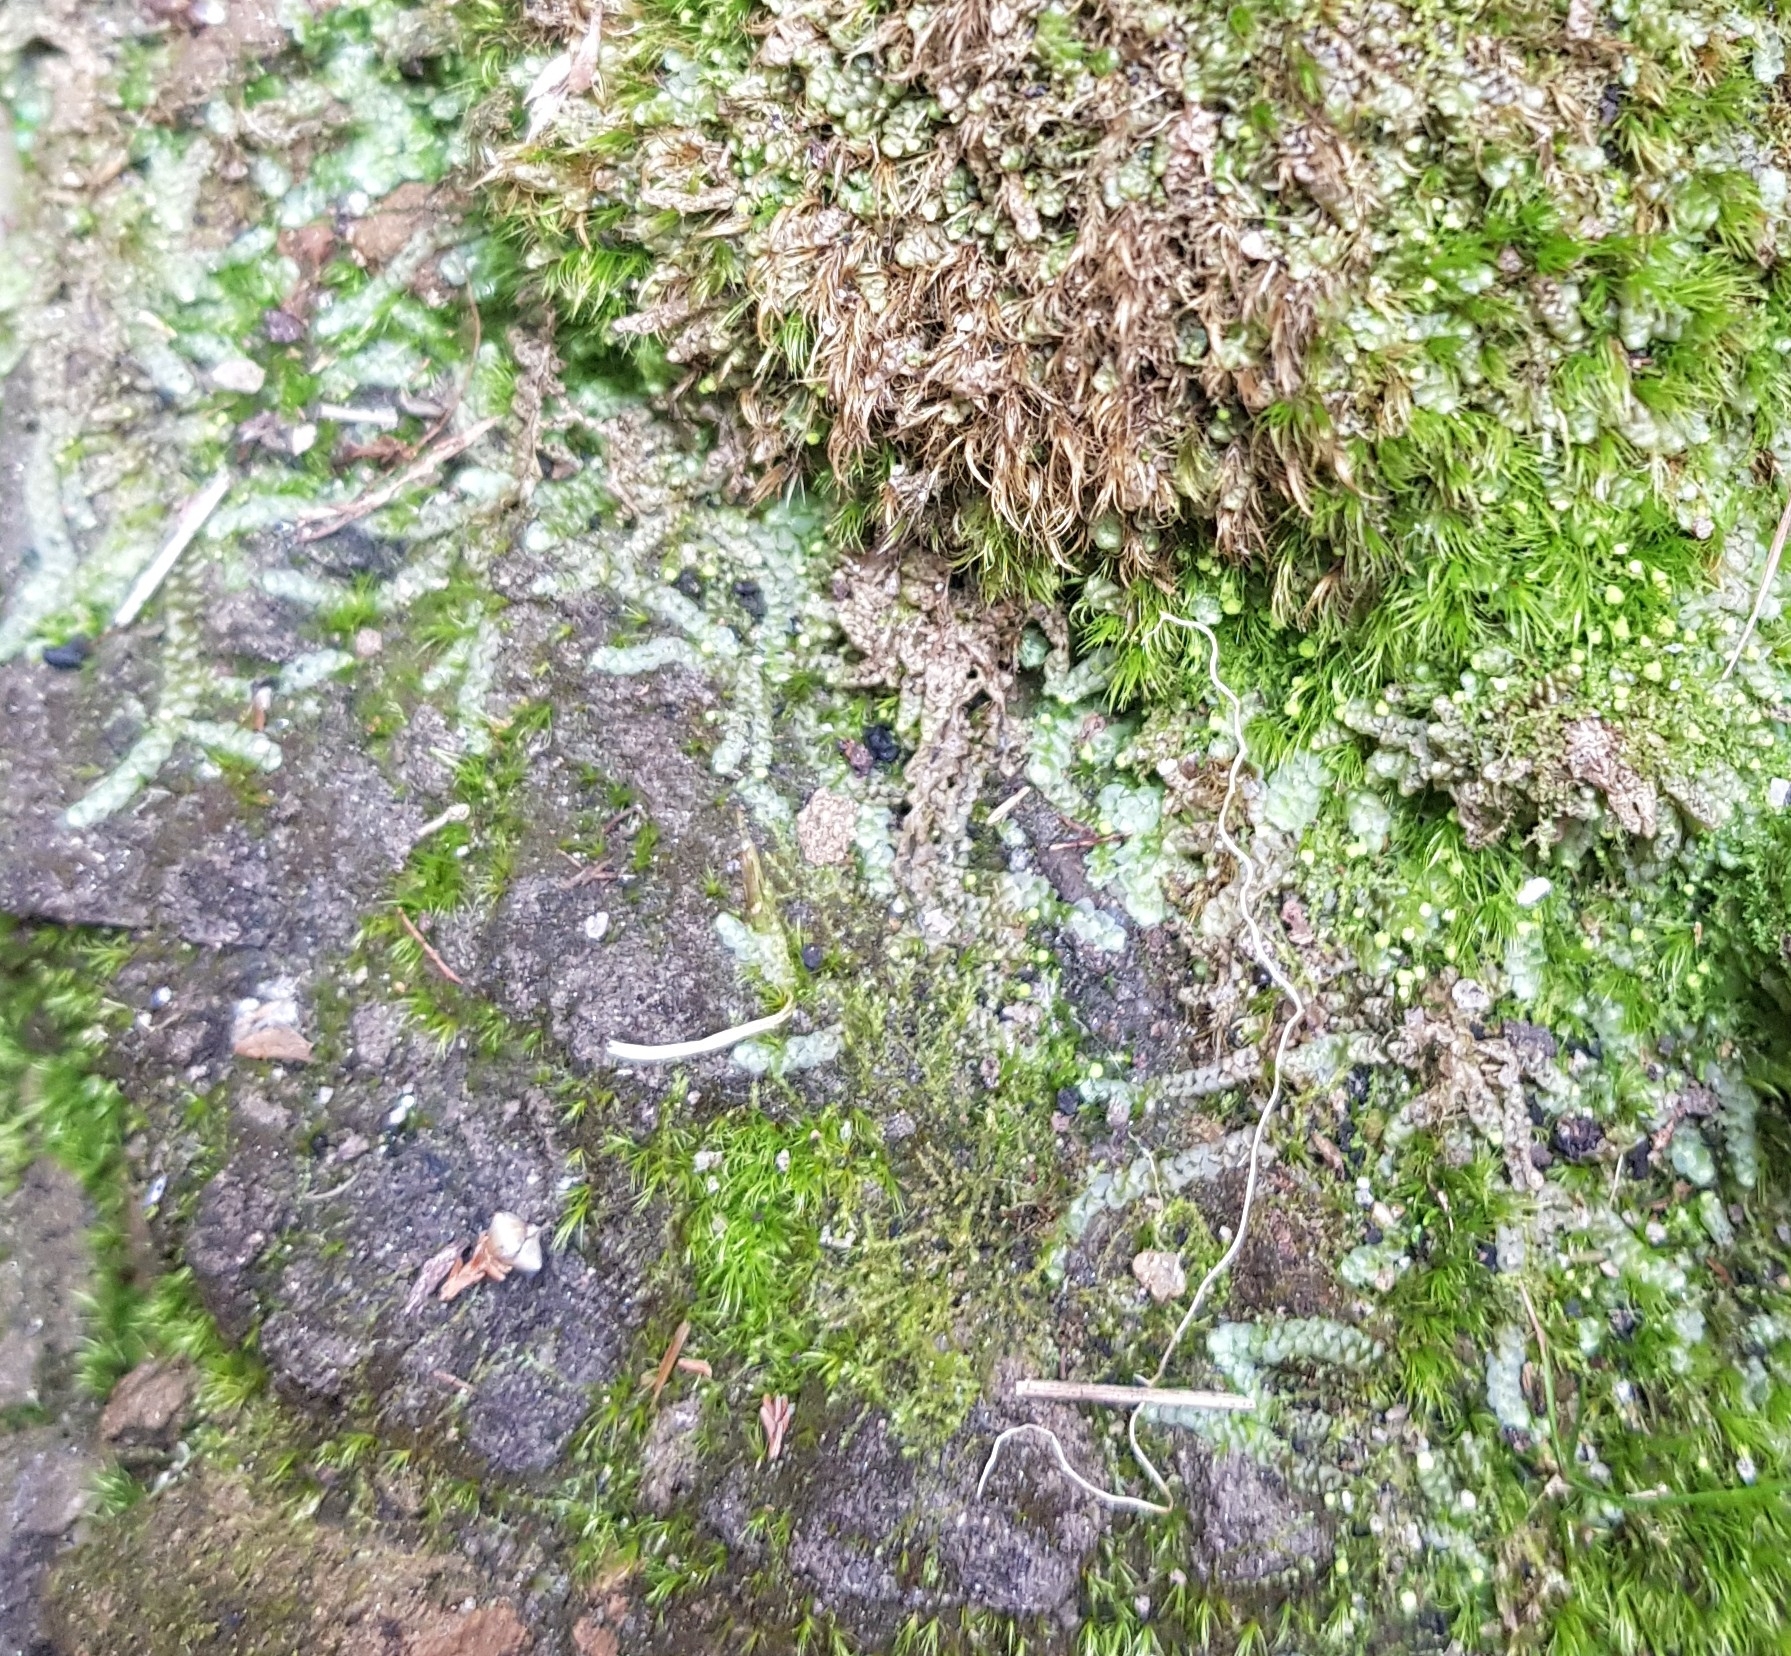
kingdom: Plantae
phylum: Marchantiophyta
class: Jungermanniopsida
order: Jungermanniales
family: Calypogeiaceae
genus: Calypogeia
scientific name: Calypogeia muelleriana
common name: Mueller s pouchwort
